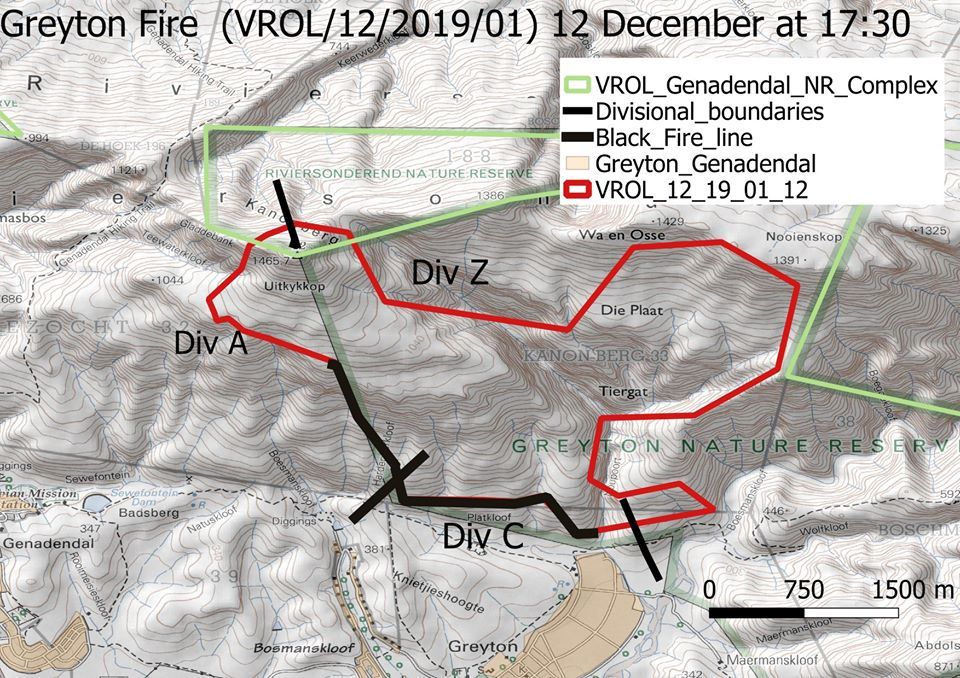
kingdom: Plantae
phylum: Tracheophyta
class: Magnoliopsida
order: Asterales
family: Asteraceae
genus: Haplocarpha
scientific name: Haplocarpha lanata
